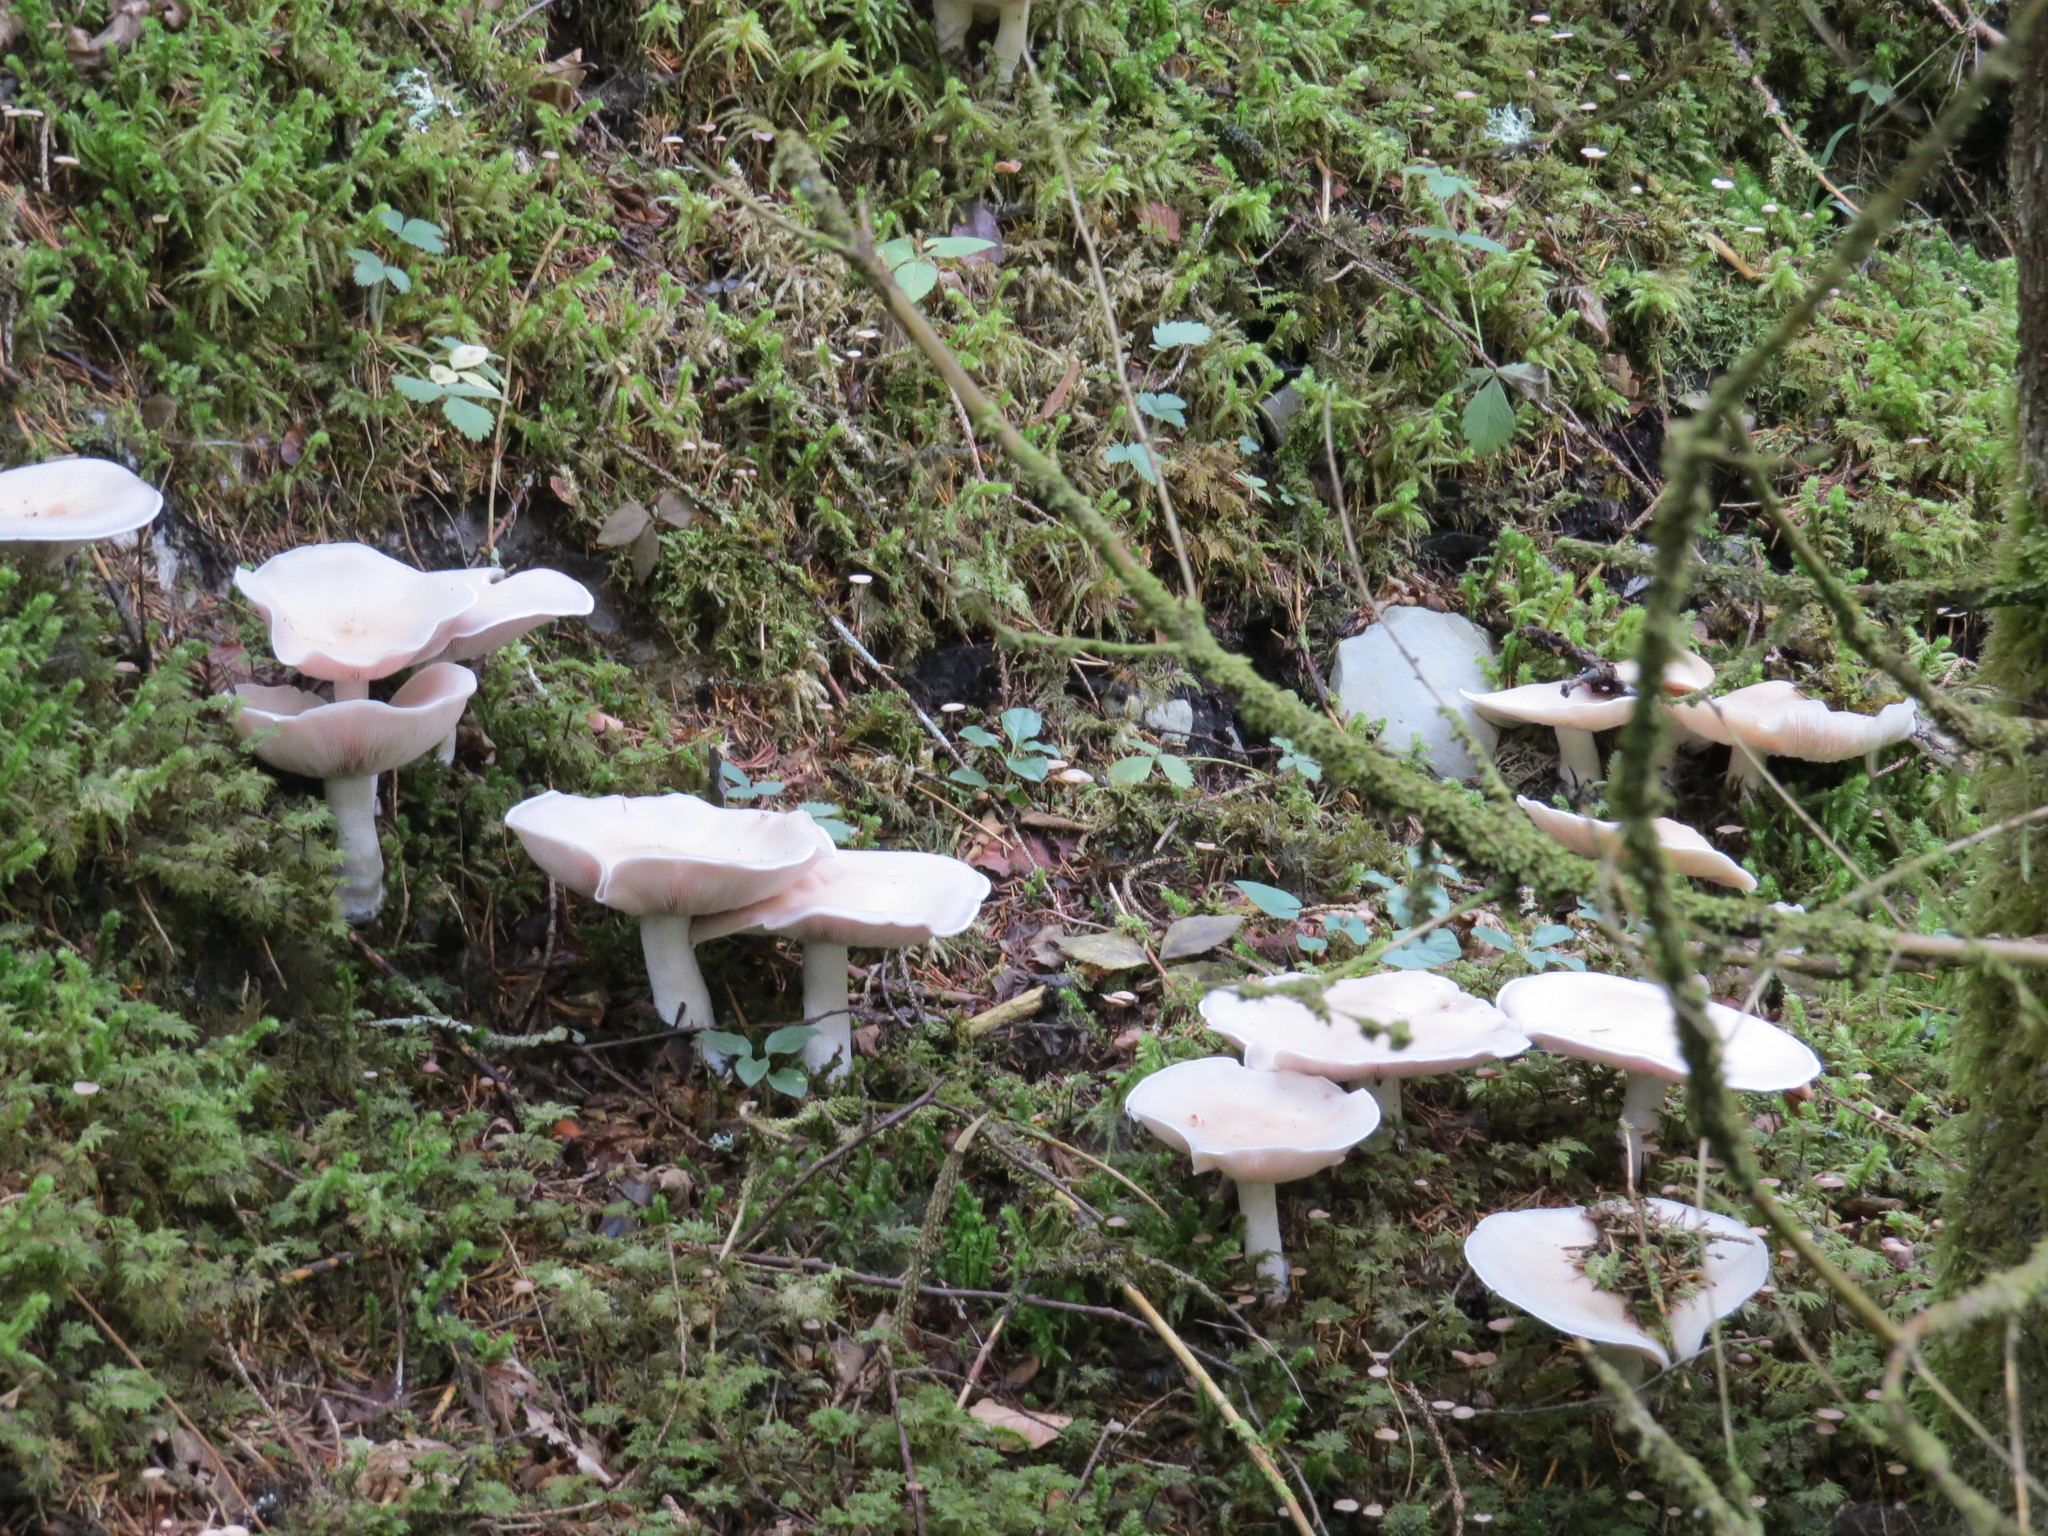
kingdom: Fungi
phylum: Basidiomycota
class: Agaricomycetes
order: Agaricales
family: Tricholomataceae
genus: Lepista
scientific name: Lepista glaucocana
